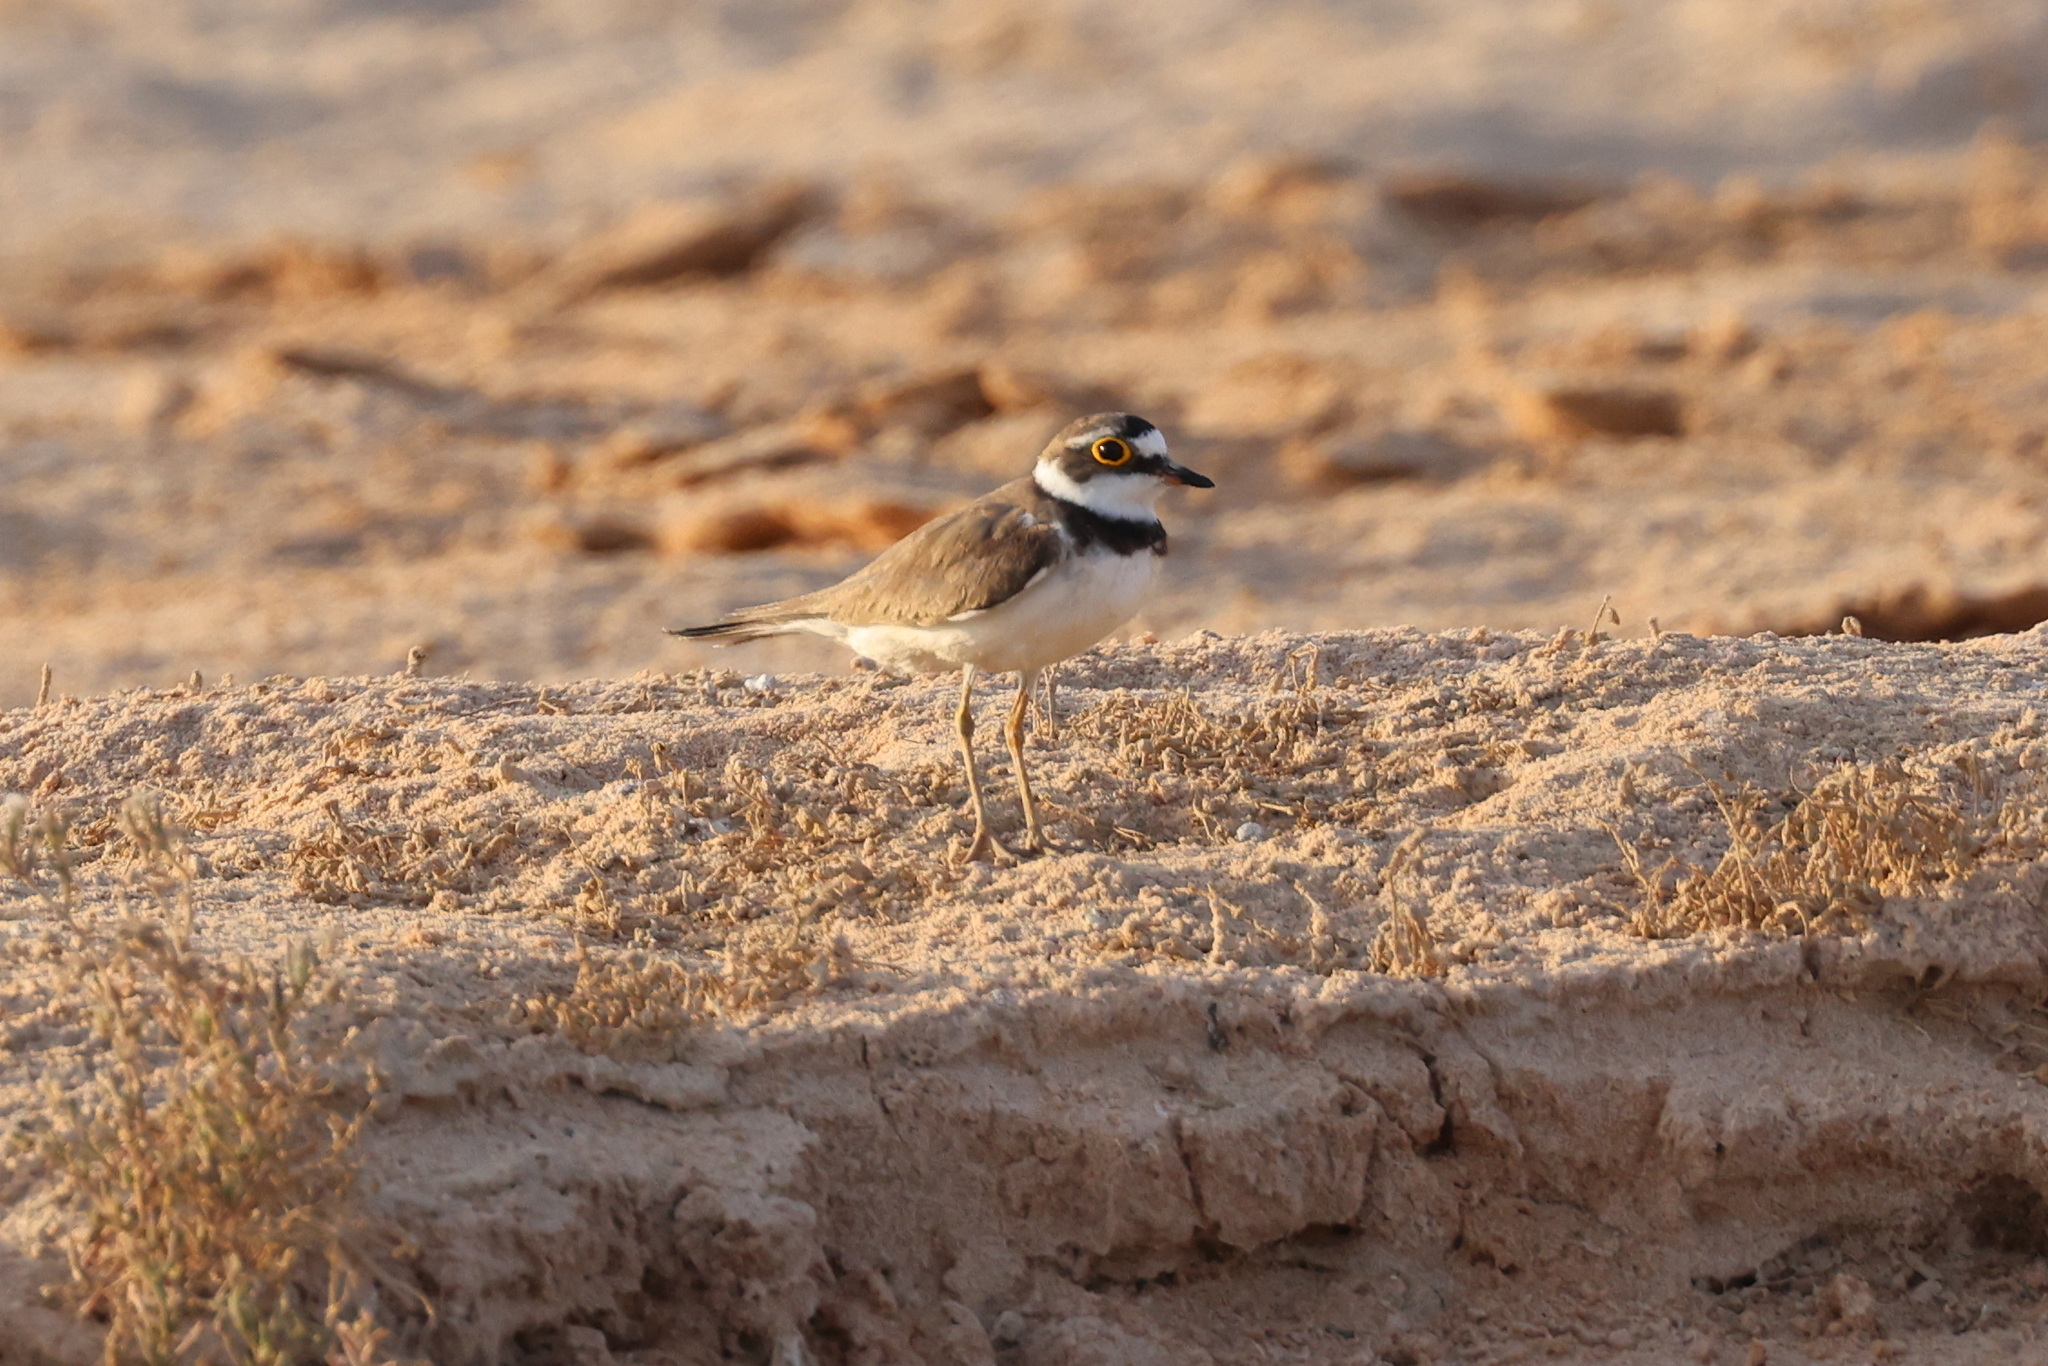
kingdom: Animalia
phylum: Chordata
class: Aves
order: Charadriiformes
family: Charadriidae
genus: Charadrius
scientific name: Charadrius dubius
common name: Little ringed plover
